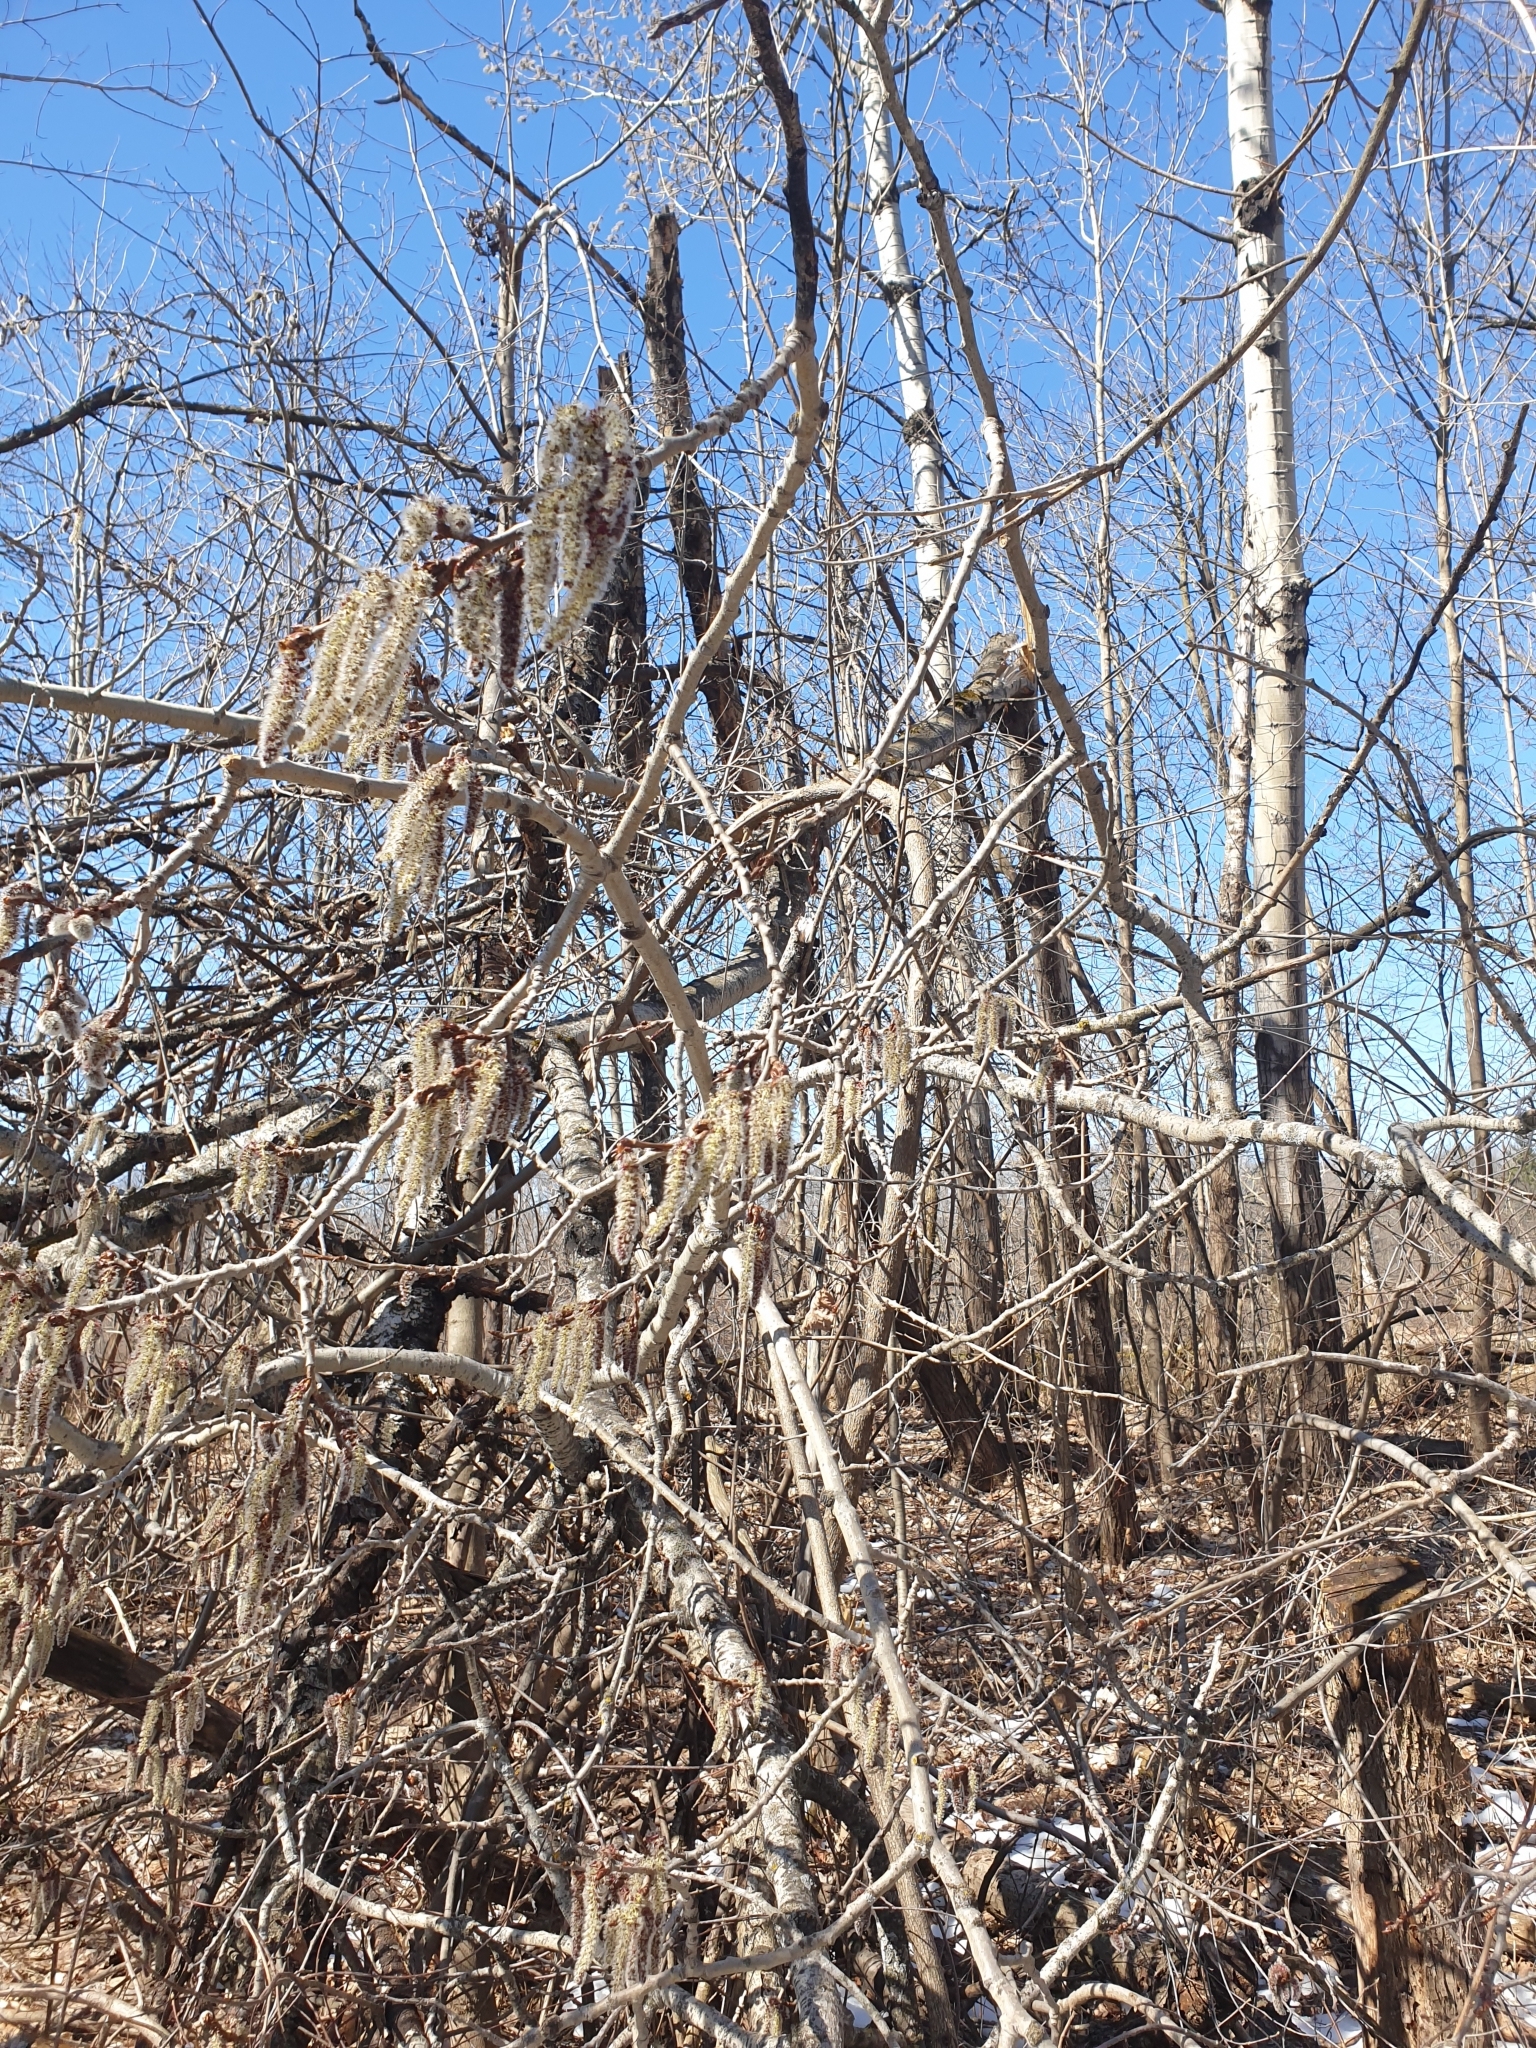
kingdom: Plantae
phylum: Tracheophyta
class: Magnoliopsida
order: Malpighiales
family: Salicaceae
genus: Populus
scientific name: Populus tremuloides
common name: Quaking aspen
